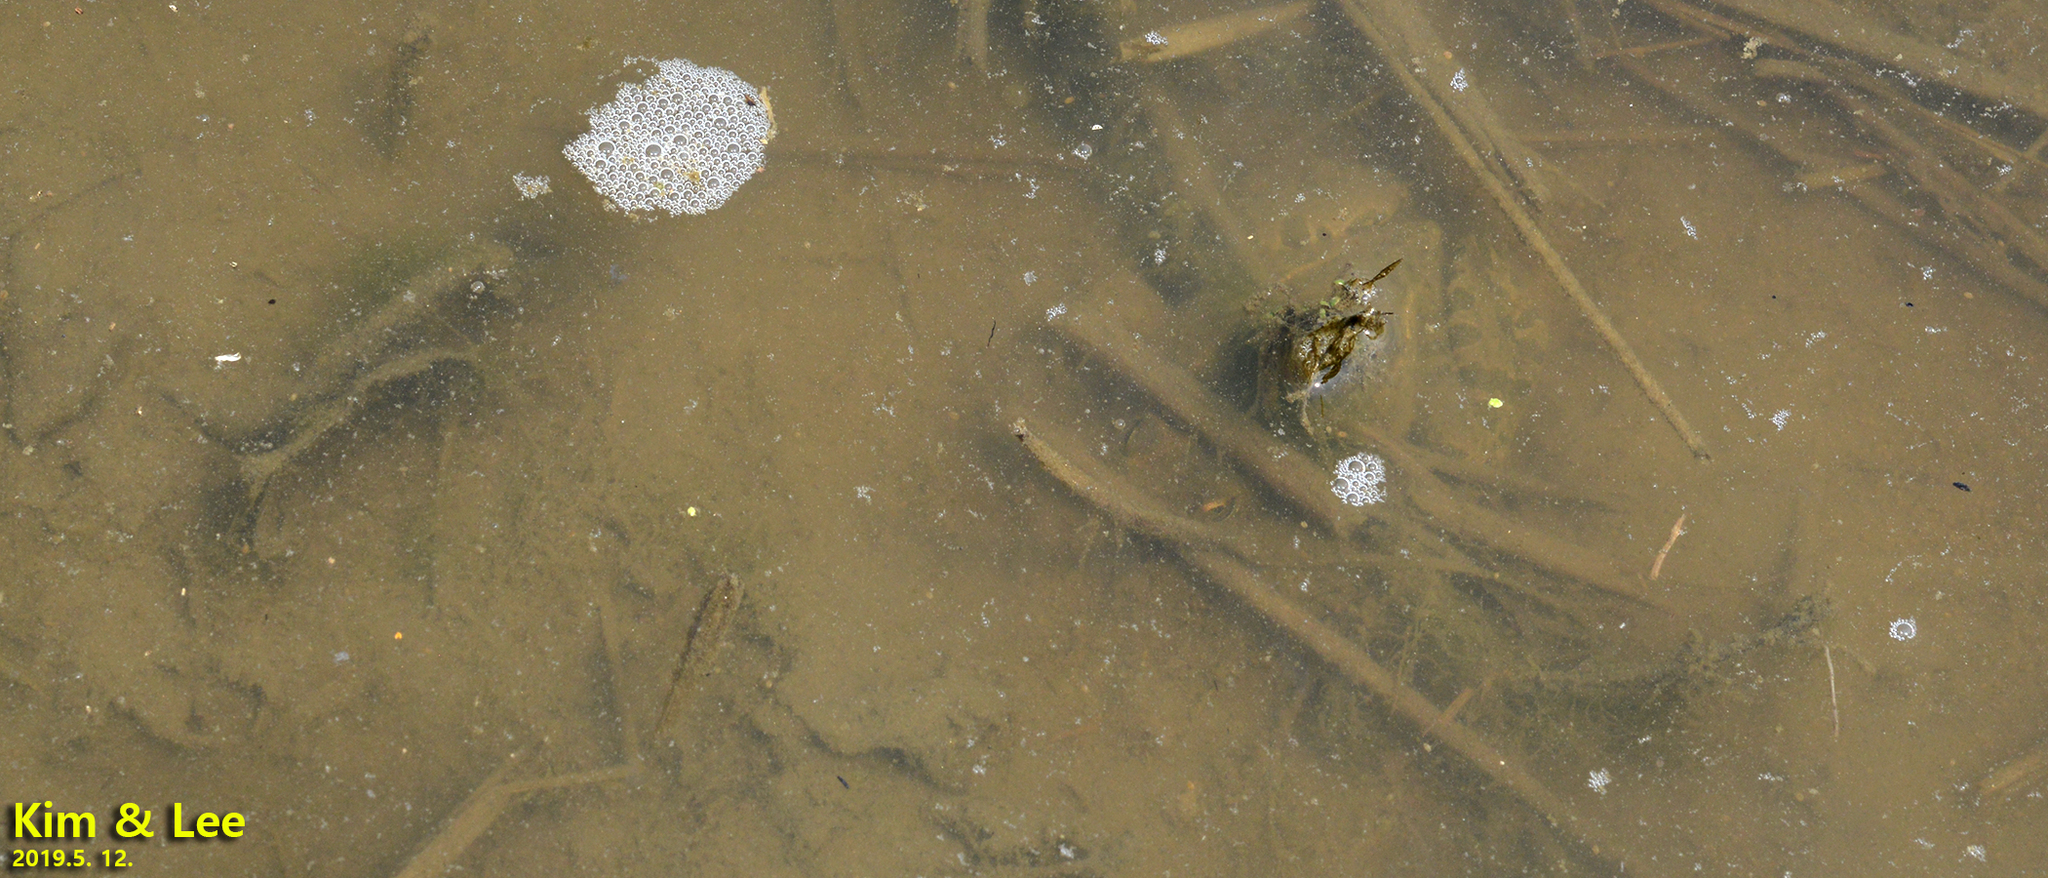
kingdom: Animalia
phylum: Chordata
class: Amphibia
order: Anura
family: Ranidae
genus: Pelophylax
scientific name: Pelophylax nigromaculatus
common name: Black-spotted pond frog
